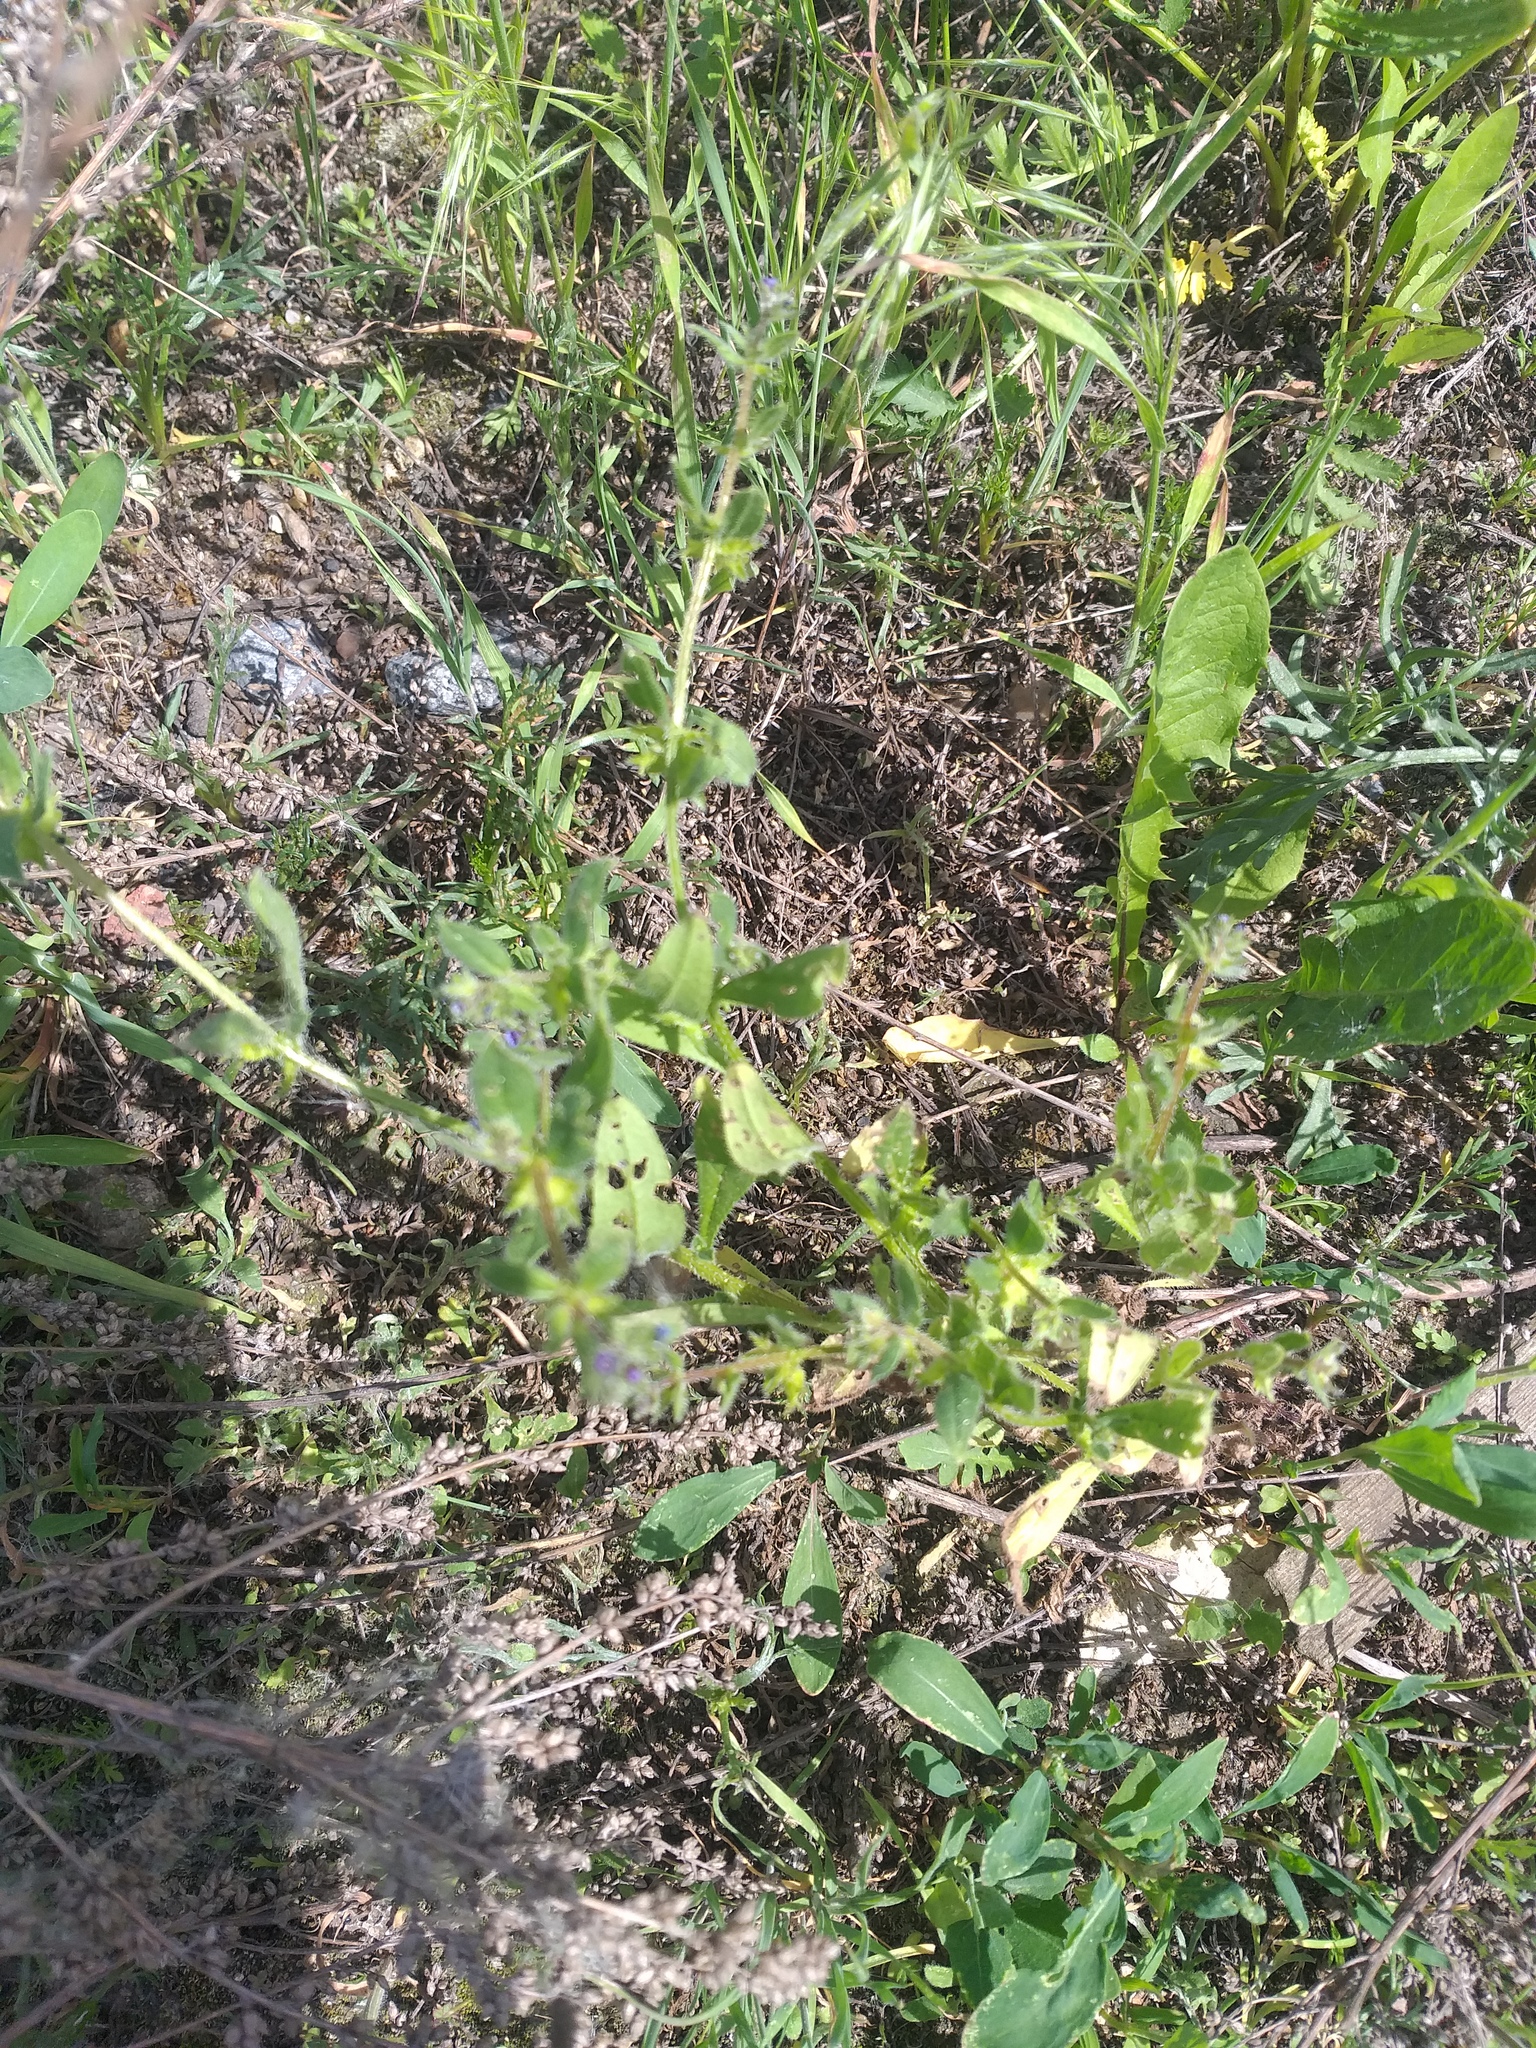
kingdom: Plantae
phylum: Tracheophyta
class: Magnoliopsida
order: Boraginales
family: Boraginaceae
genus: Asperugo
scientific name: Asperugo procumbens
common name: Madwort
